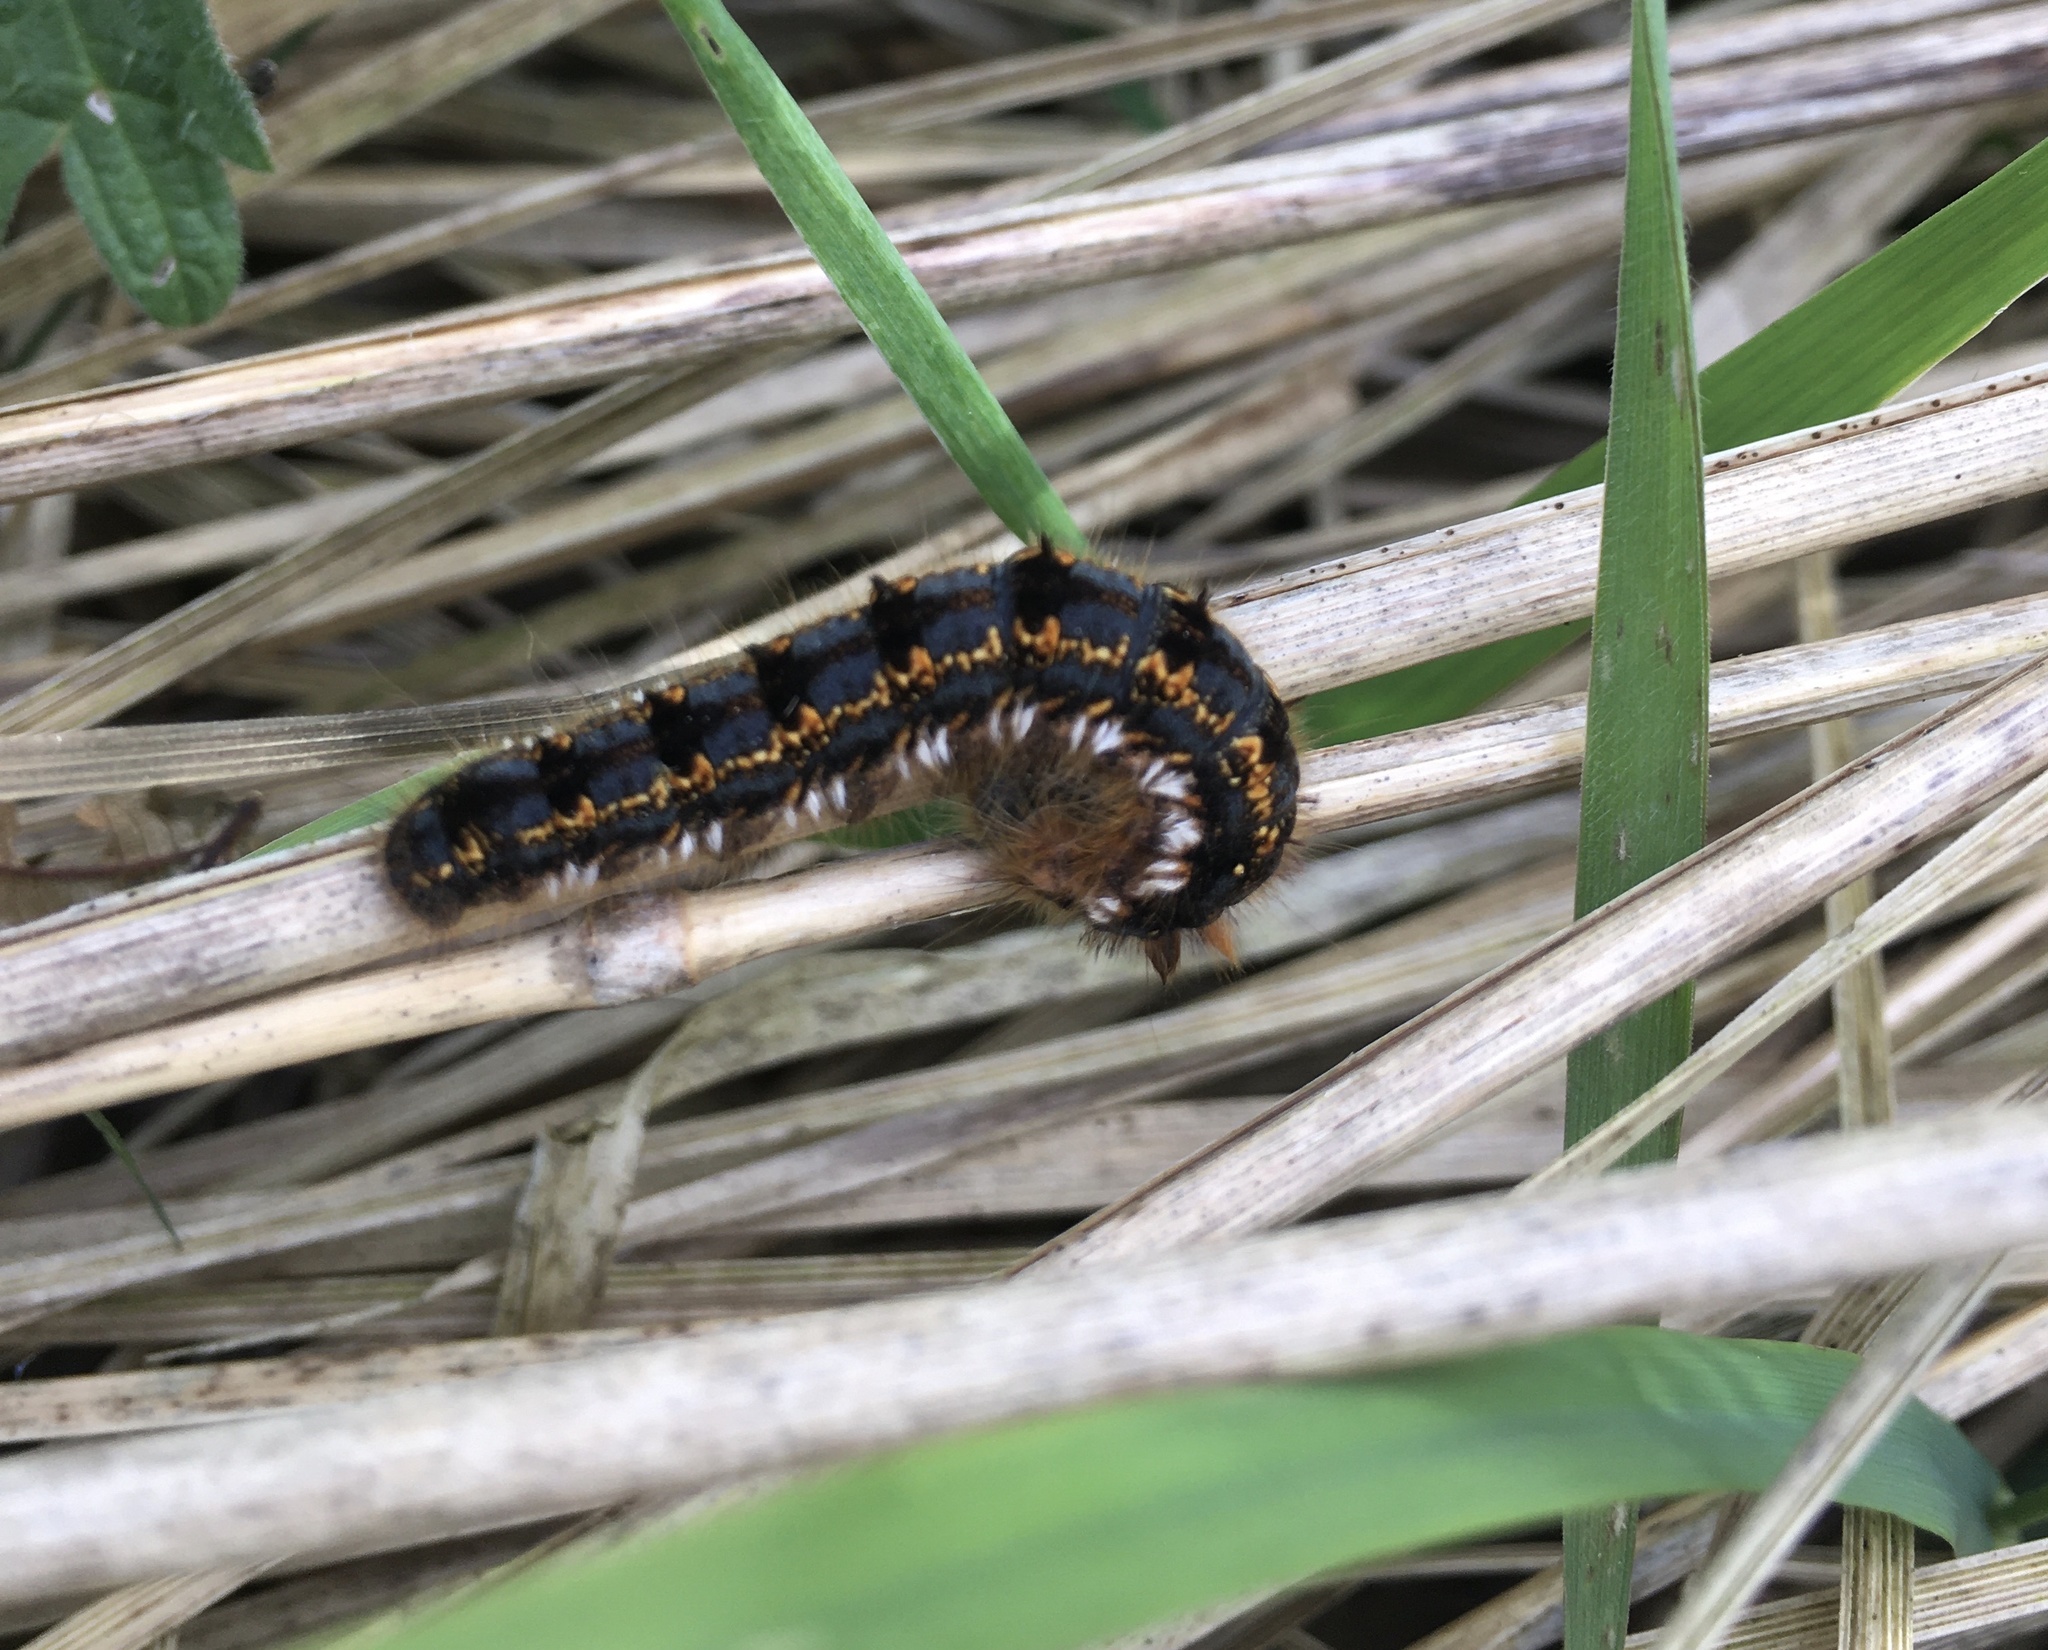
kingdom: Animalia
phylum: Arthropoda
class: Insecta
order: Lepidoptera
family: Lasiocampidae
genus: Euthrix
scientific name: Euthrix potatoria
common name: Drinker
